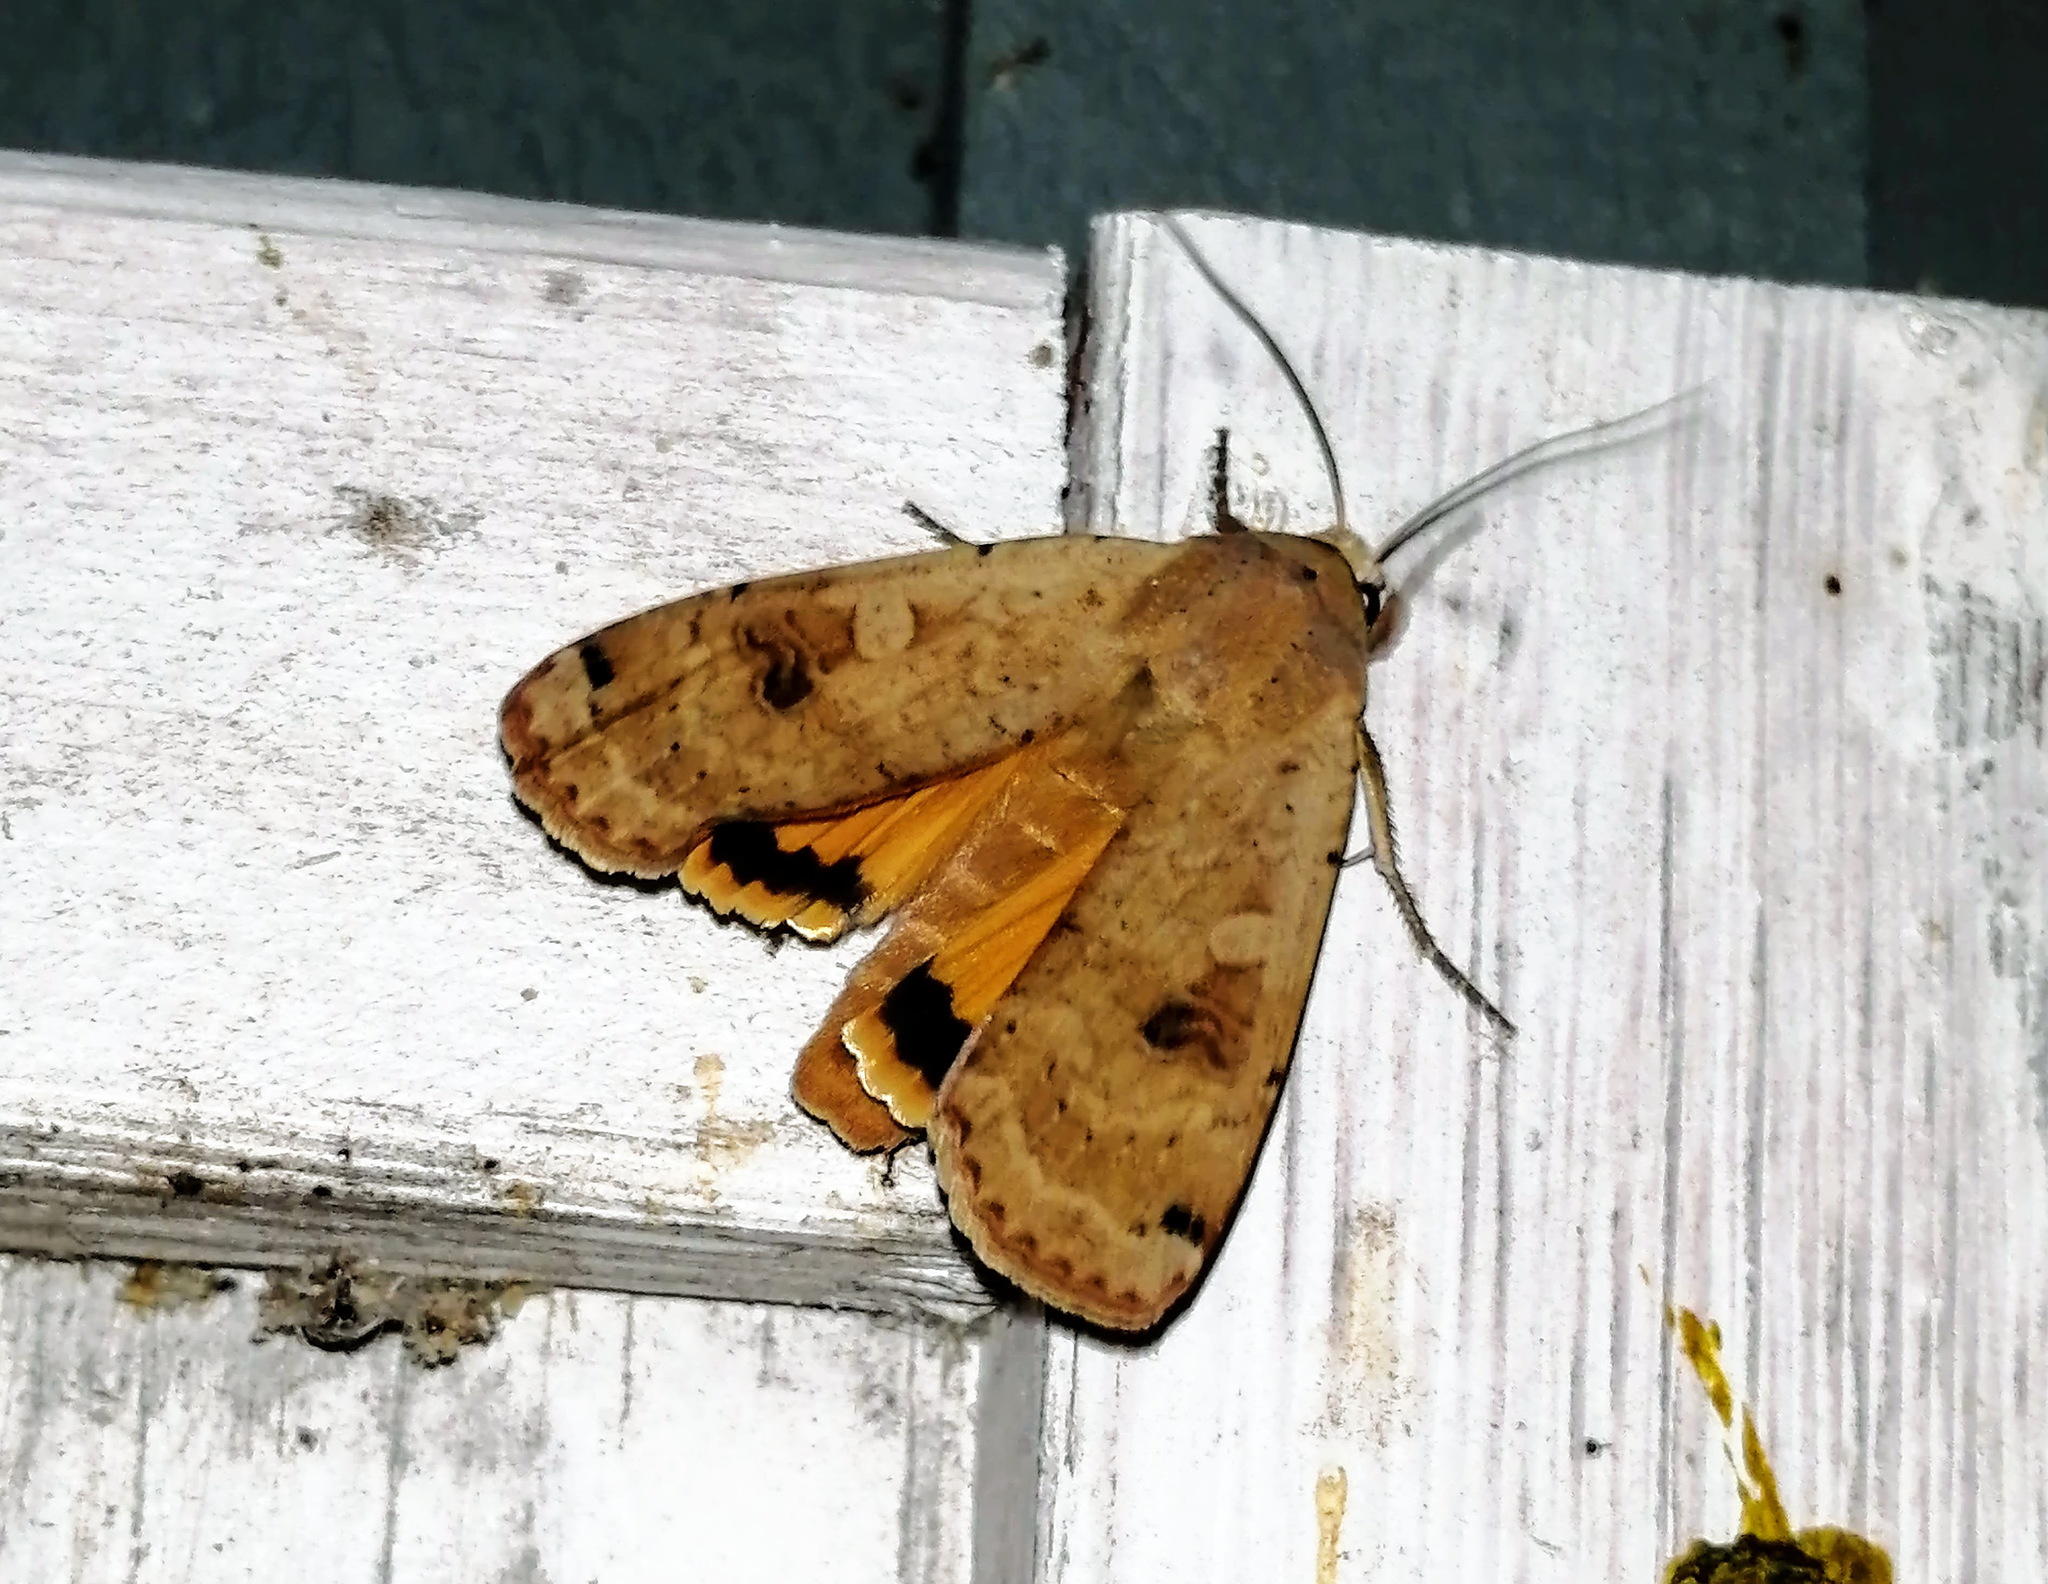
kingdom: Animalia
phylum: Arthropoda
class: Insecta
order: Lepidoptera
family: Noctuidae
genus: Noctua
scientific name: Noctua pronuba
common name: Large yellow underwing
